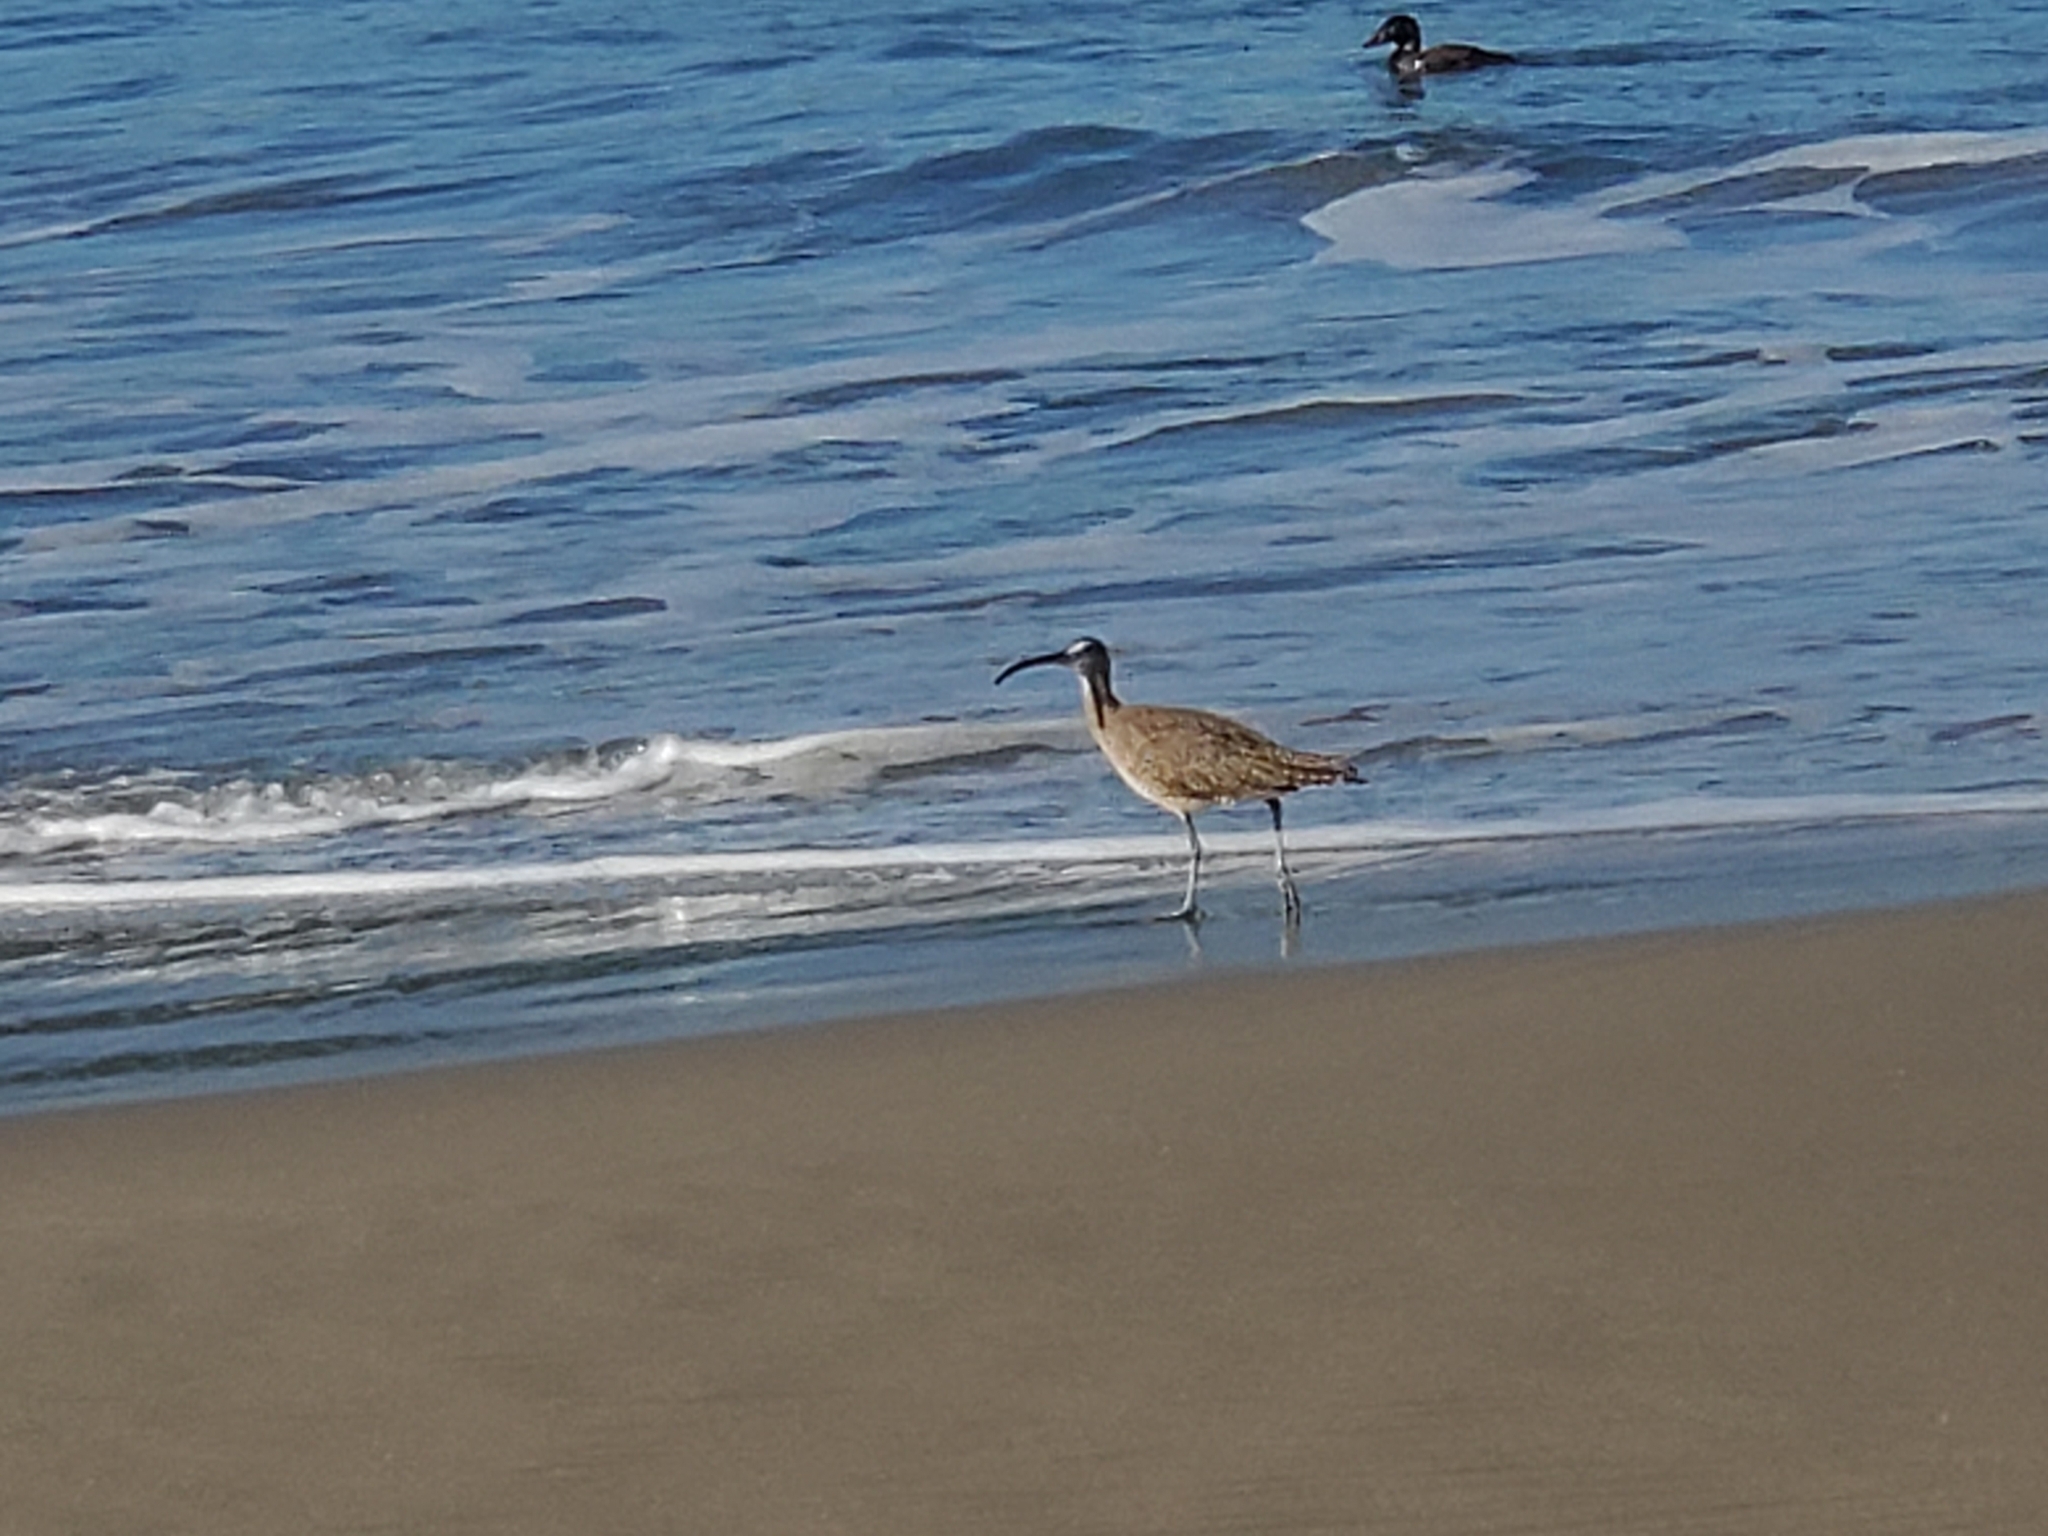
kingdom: Animalia
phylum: Chordata
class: Aves
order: Charadriiformes
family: Scolopacidae
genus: Numenius
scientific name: Numenius phaeopus
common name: Whimbrel
